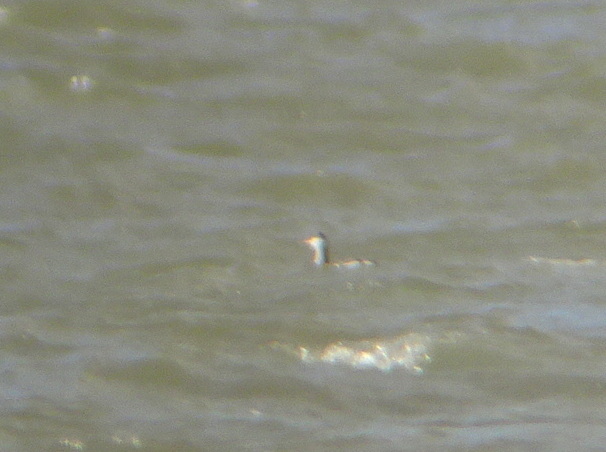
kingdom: Animalia
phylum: Chordata
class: Aves
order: Podicipediformes
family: Podicipedidae
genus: Podiceps
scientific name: Podiceps auritus
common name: Horned grebe
